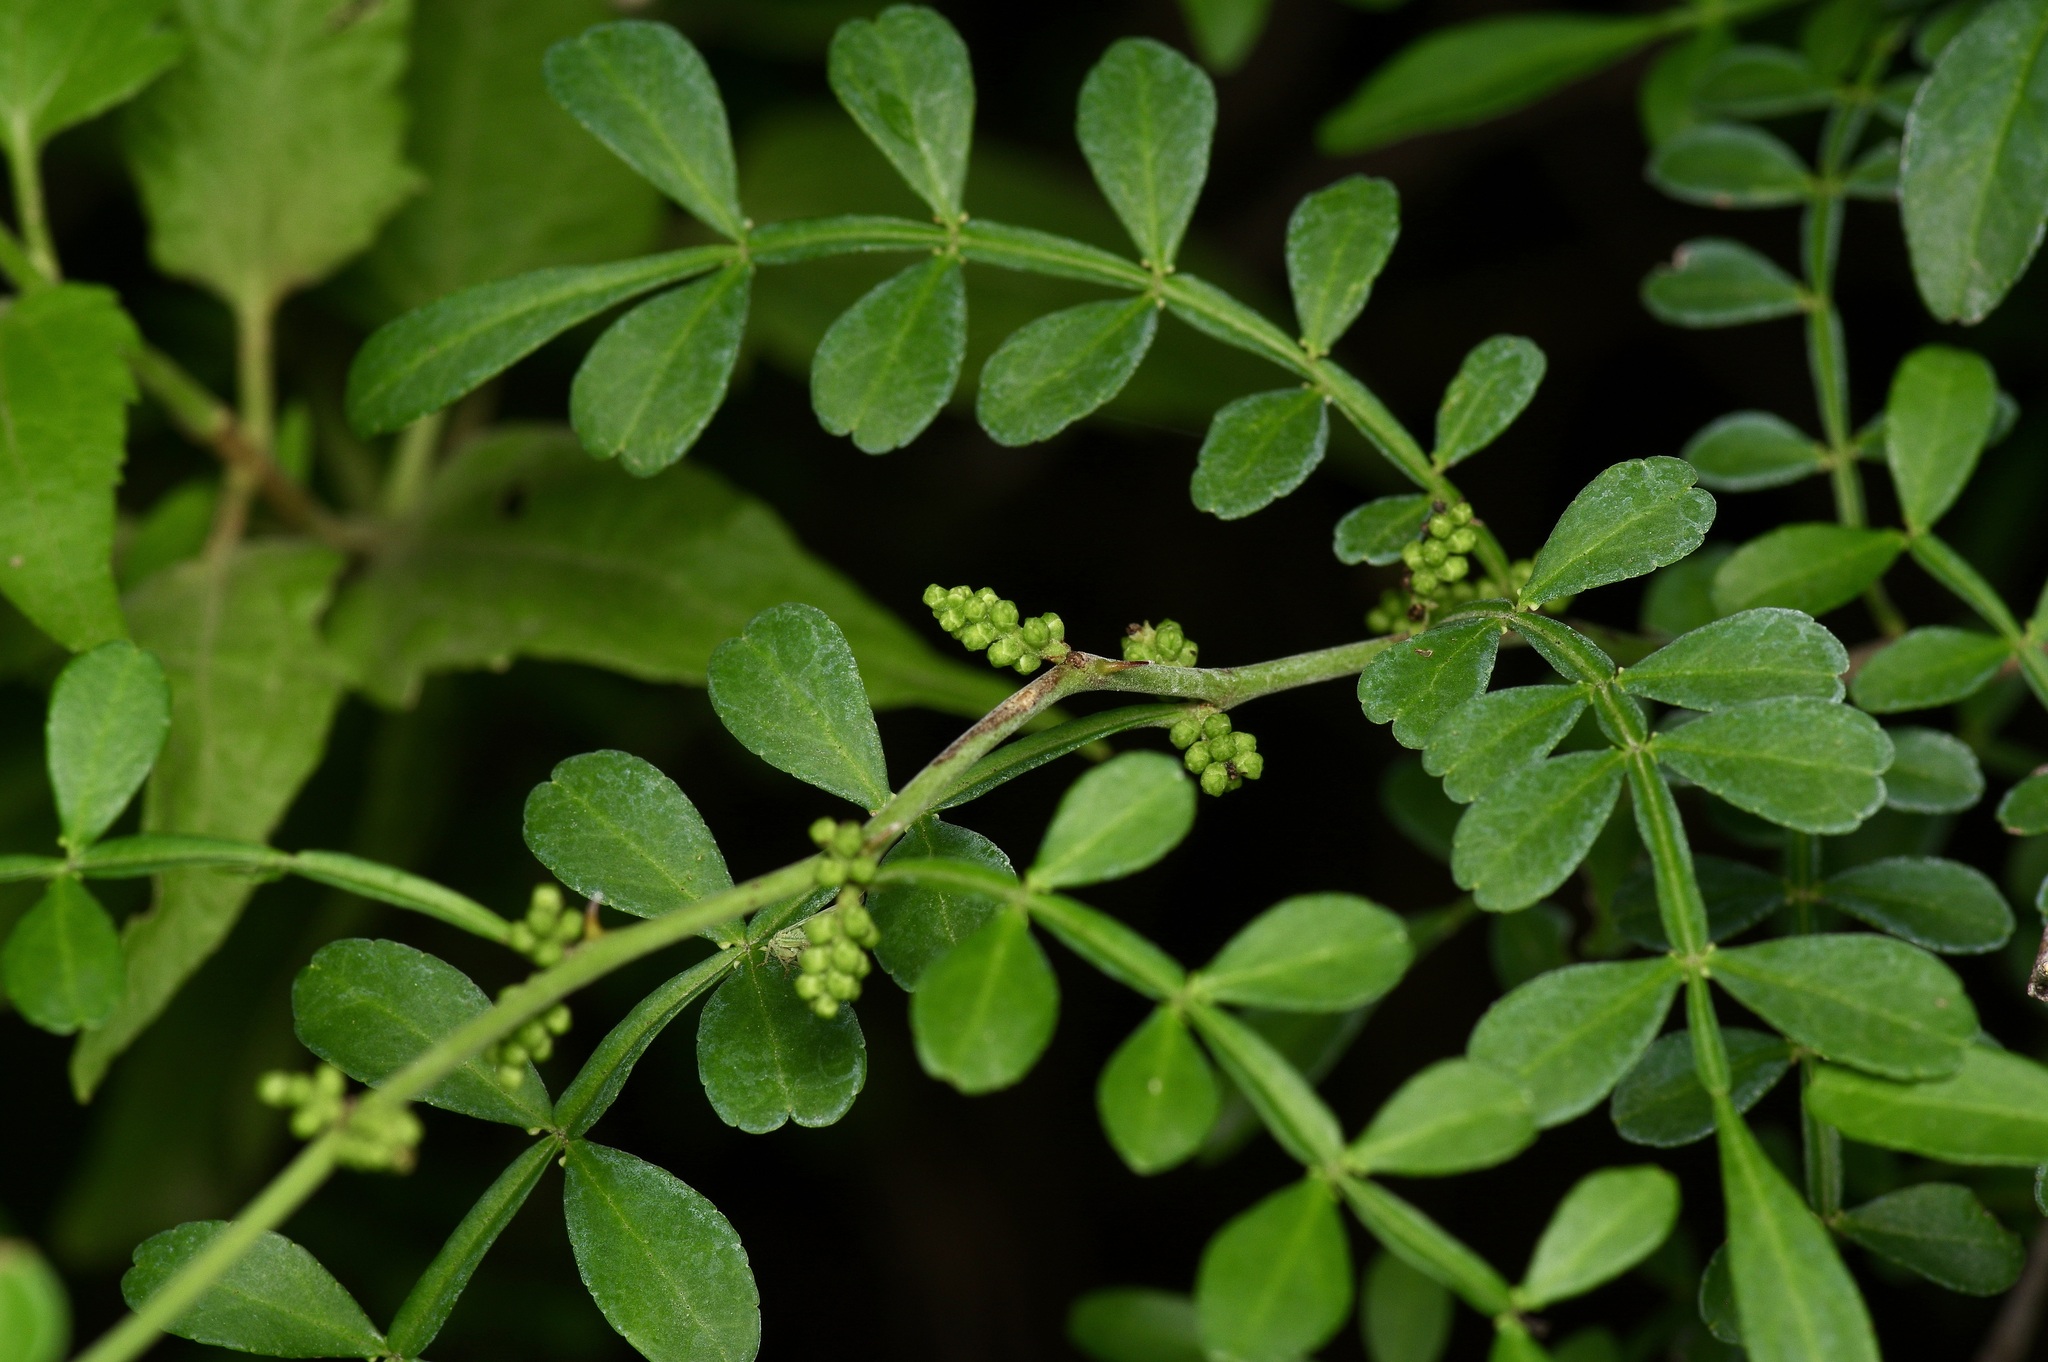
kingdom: Plantae
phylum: Tracheophyta
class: Magnoliopsida
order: Sapindales
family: Rutaceae
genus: Zanthoxylum
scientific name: Zanthoxylum fagara
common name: Lime prickly-ash
